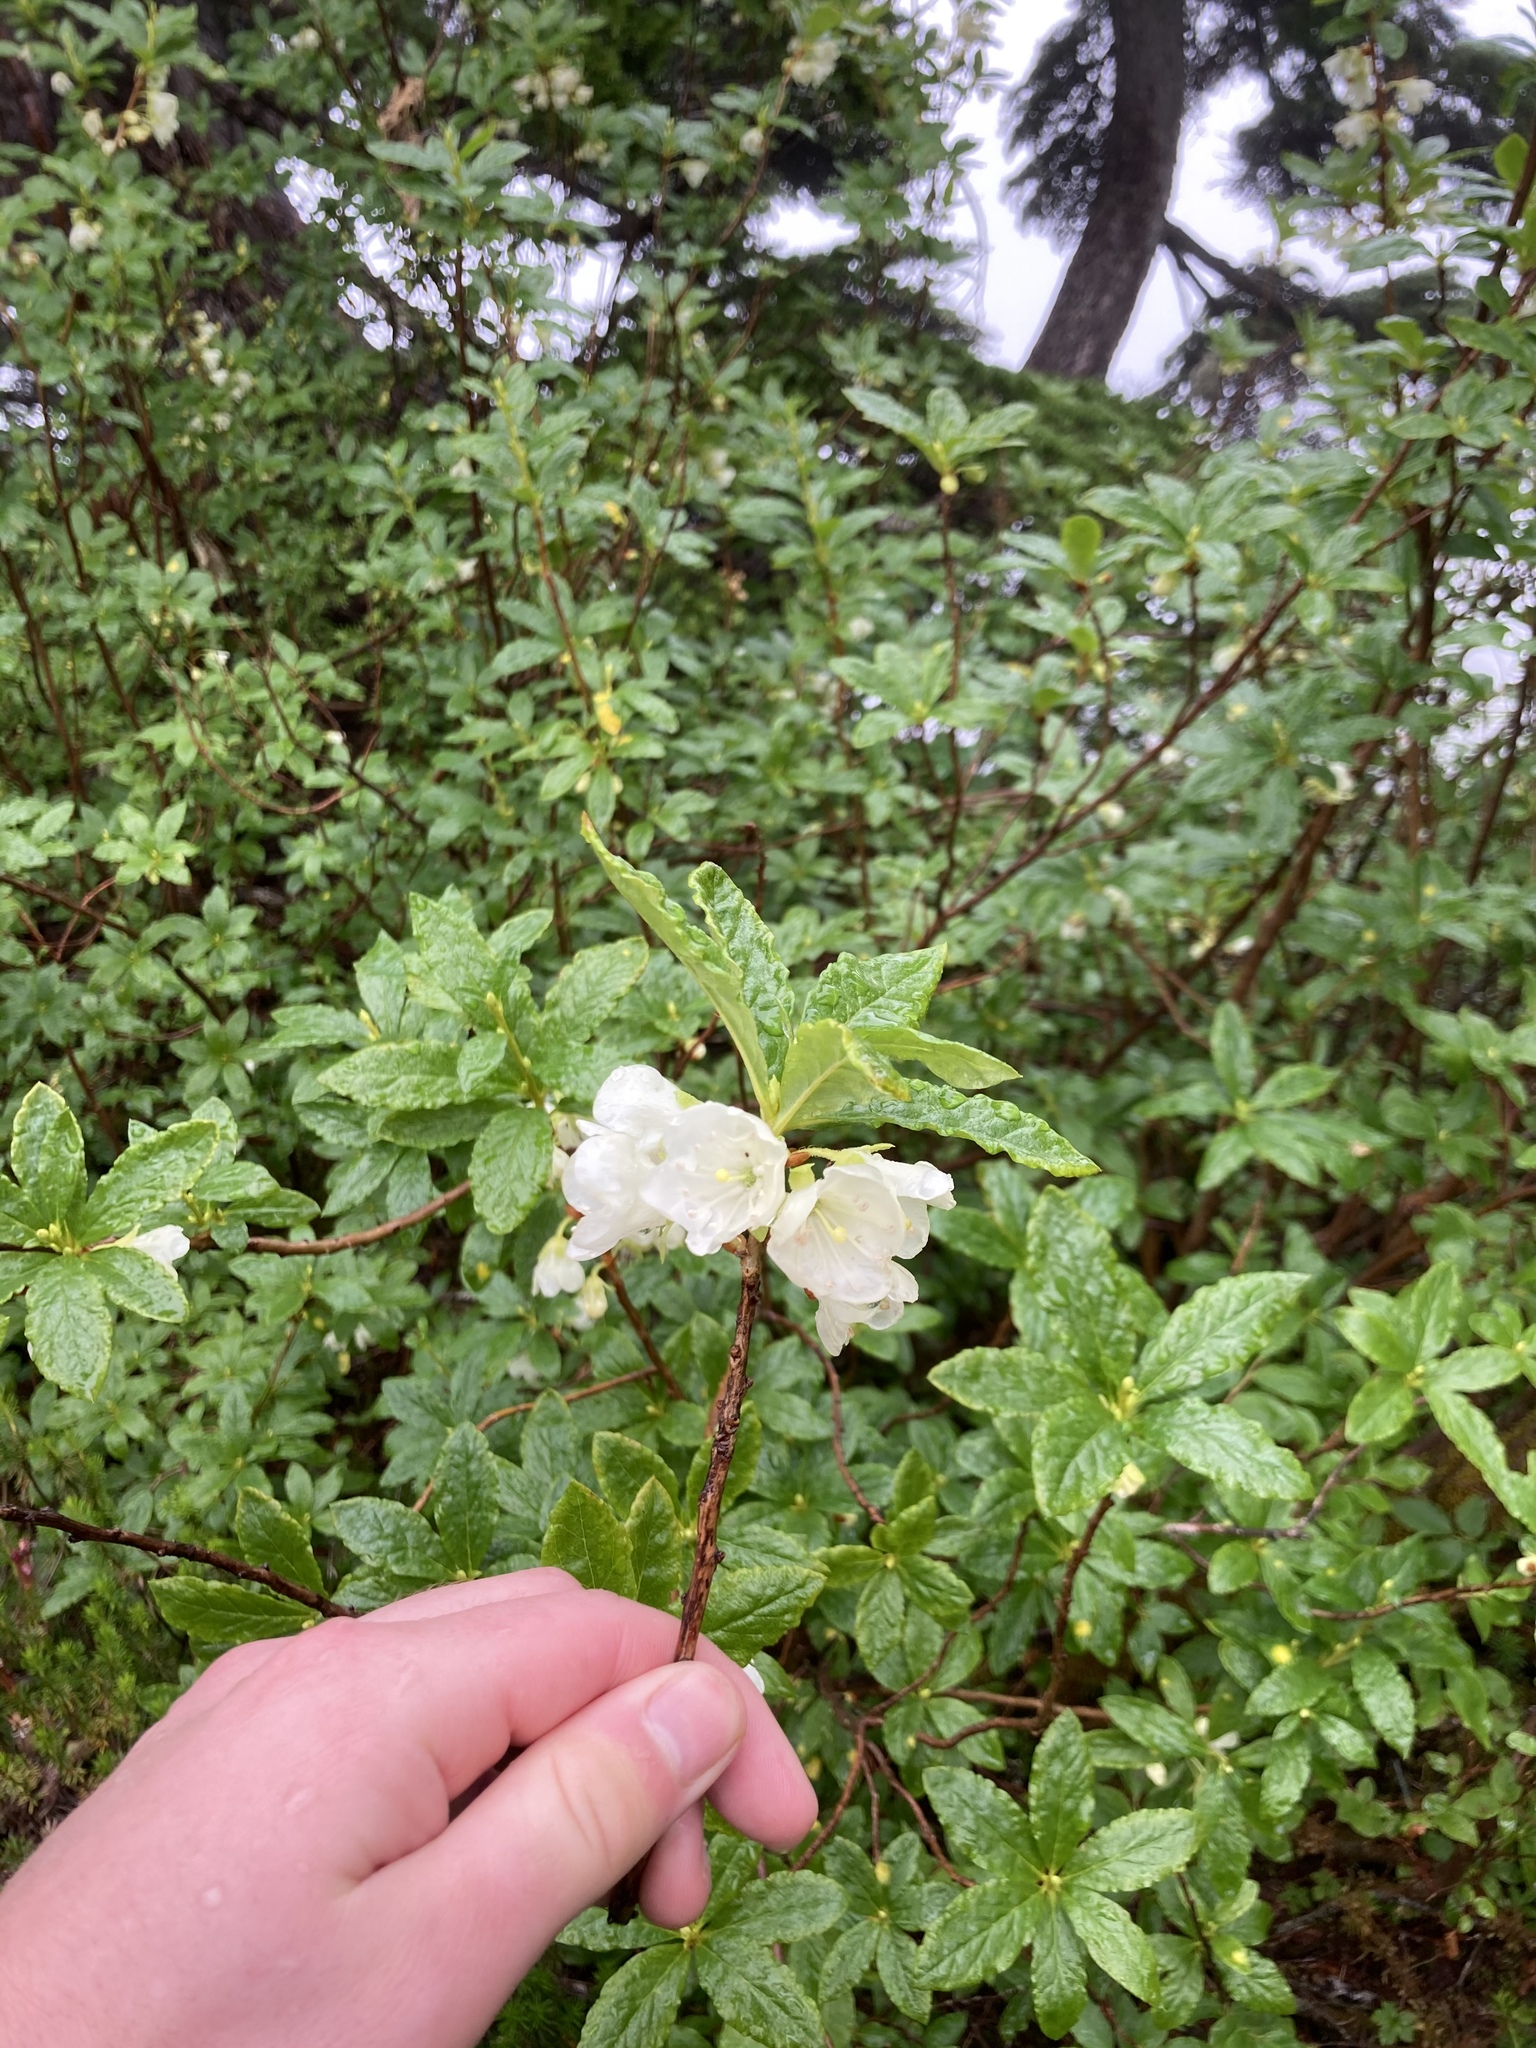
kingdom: Plantae
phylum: Tracheophyta
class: Magnoliopsida
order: Ericales
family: Ericaceae
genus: Rhododendron
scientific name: Rhododendron albiflorum
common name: White rhododendron
